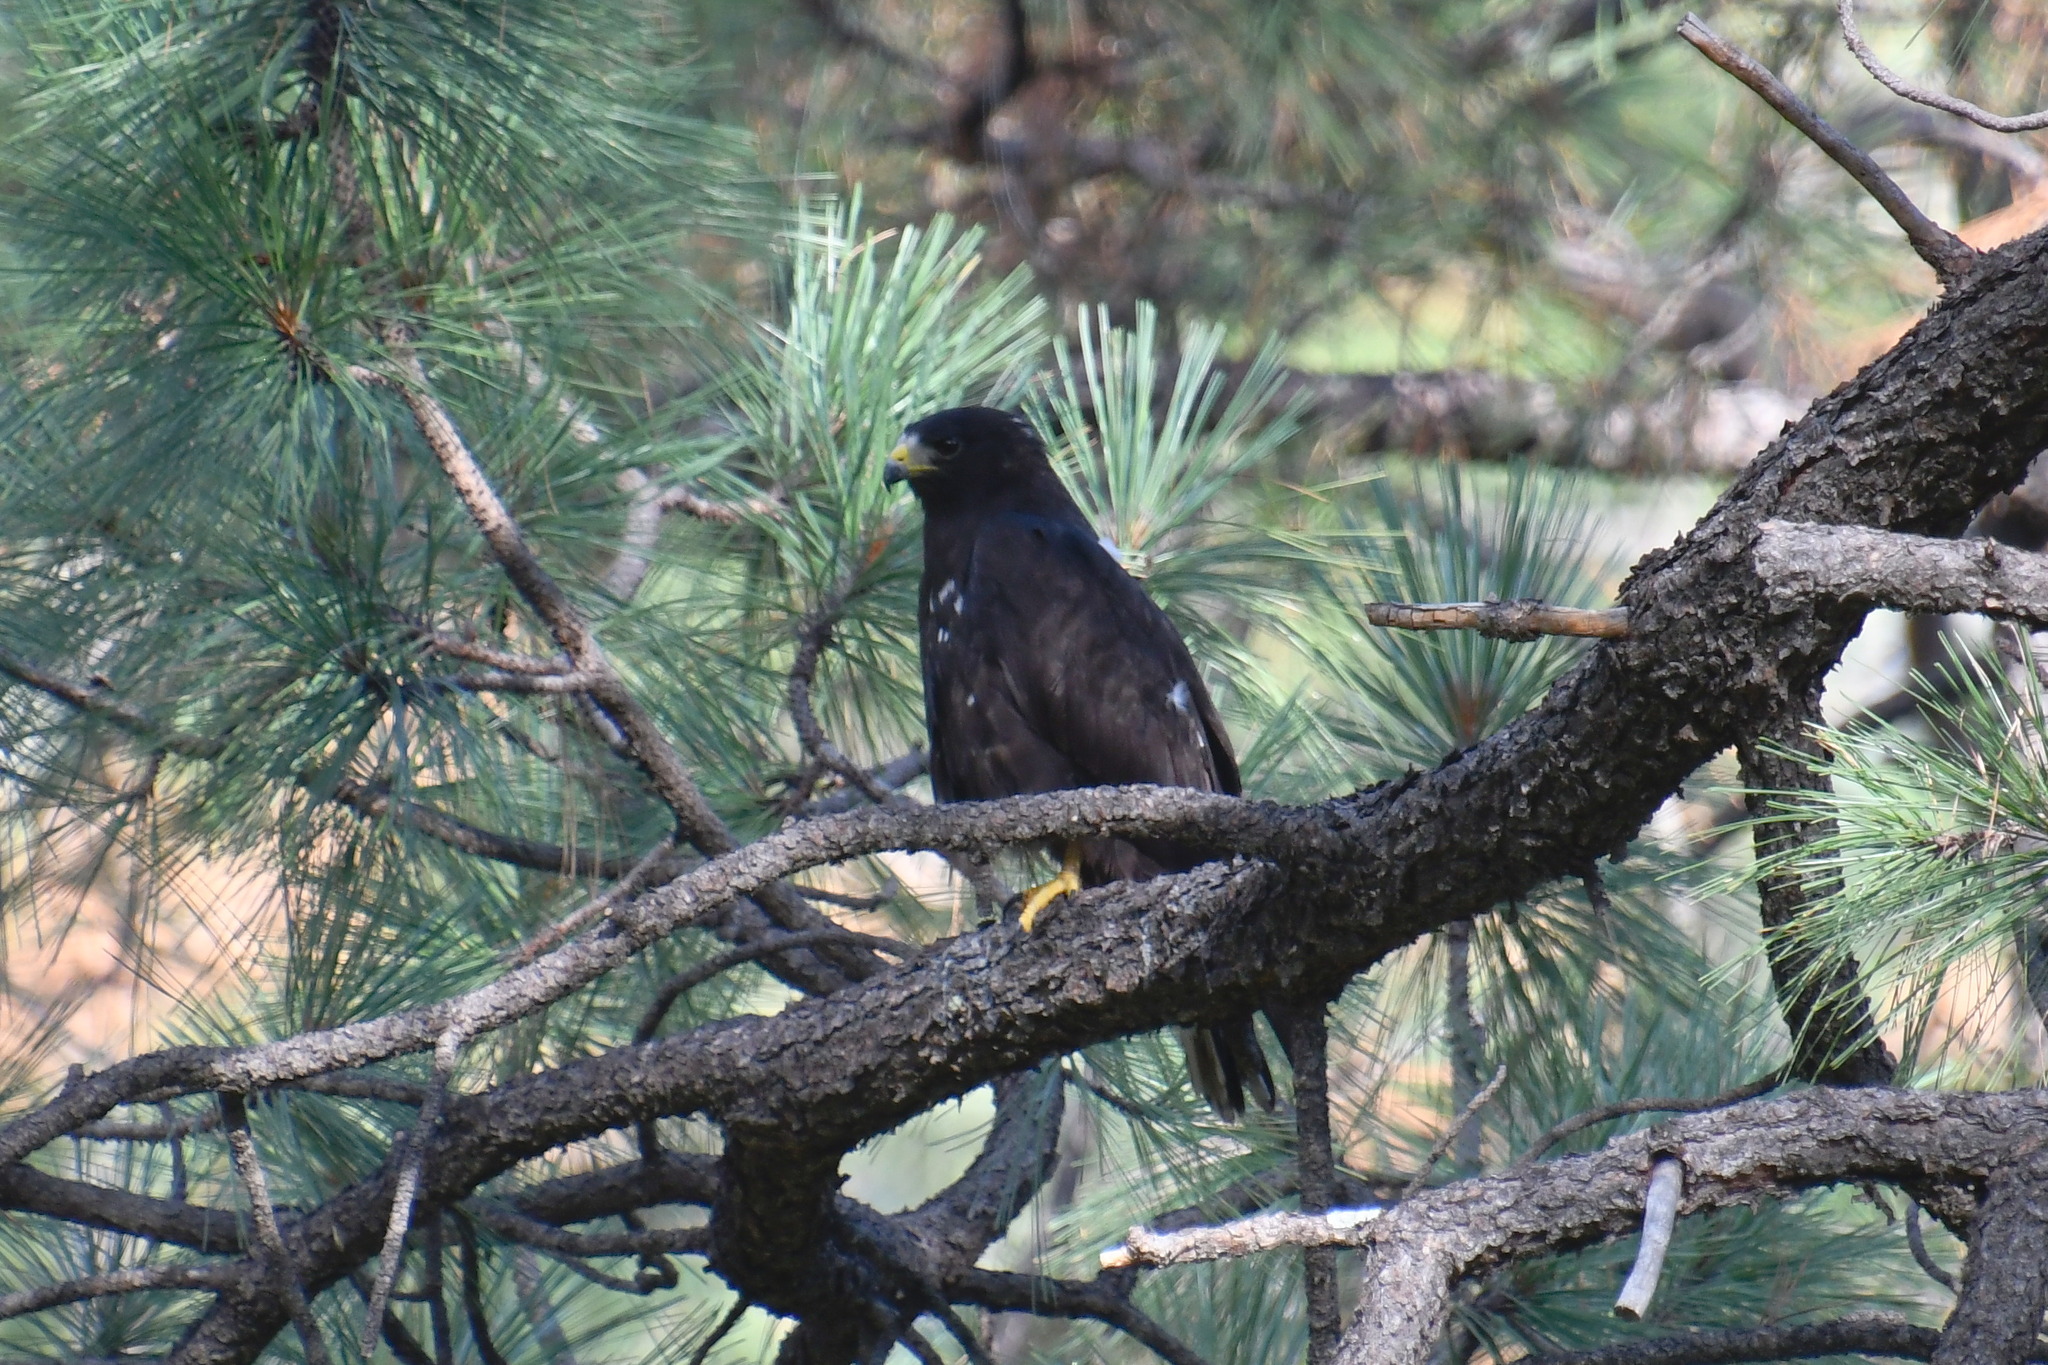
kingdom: Animalia
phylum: Chordata
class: Aves
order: Accipitriformes
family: Accipitridae
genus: Buteo
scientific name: Buteo albonotatus
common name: Zone-tailed hawk
